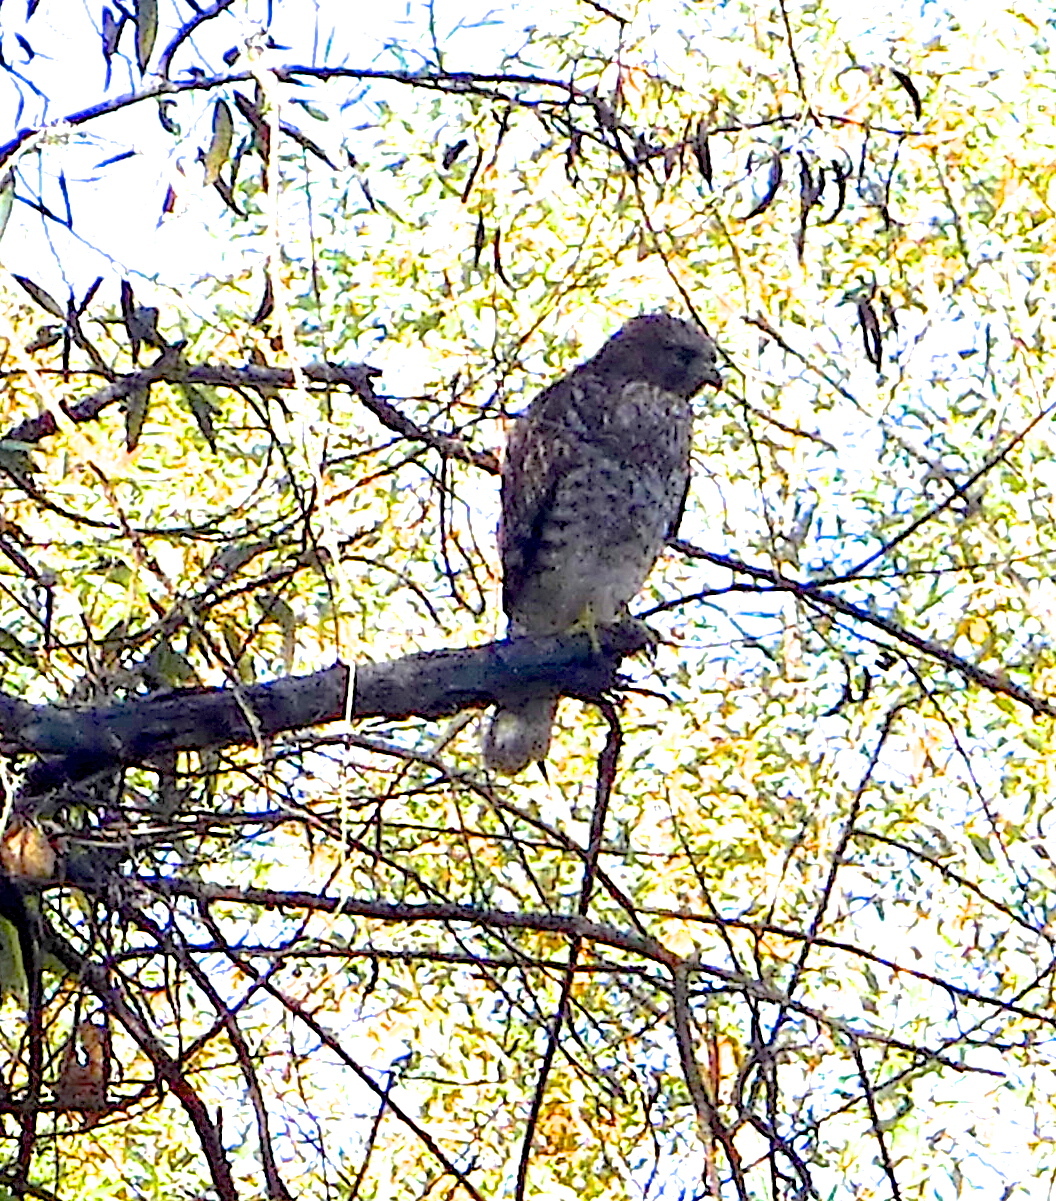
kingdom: Animalia
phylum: Chordata
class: Aves
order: Accipitriformes
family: Accipitridae
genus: Buteo
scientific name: Buteo lineatus
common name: Red-shouldered hawk
